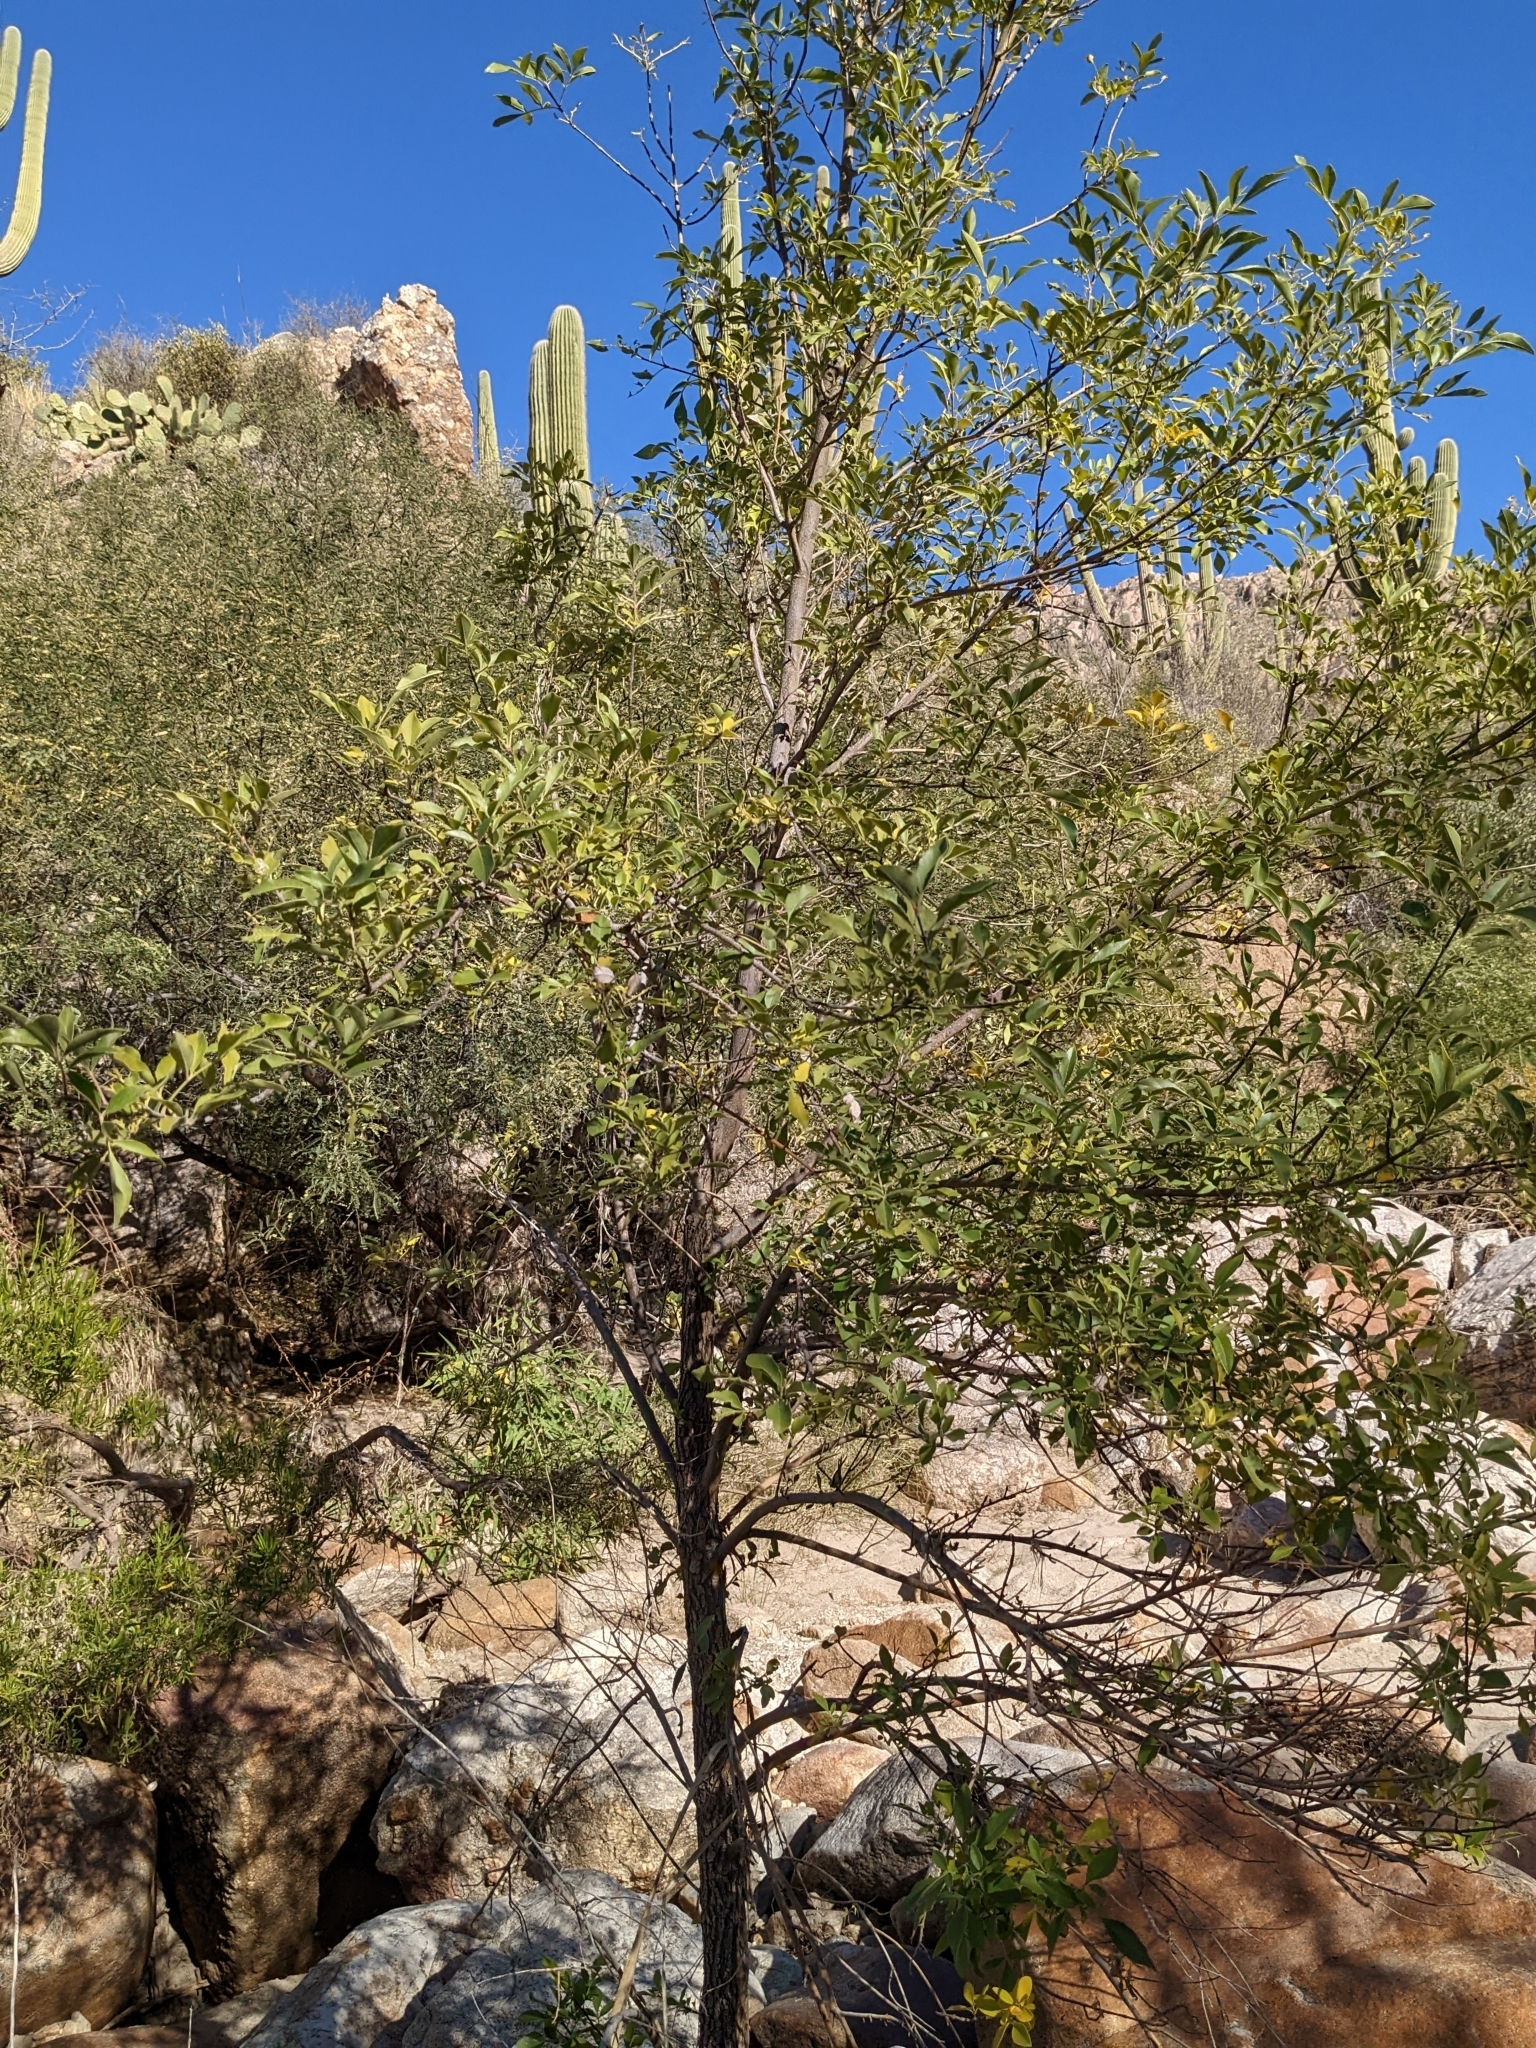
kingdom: Plantae
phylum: Tracheophyta
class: Magnoliopsida
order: Lamiales
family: Oleaceae
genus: Fraxinus
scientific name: Fraxinus velutina
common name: Arizon ash
